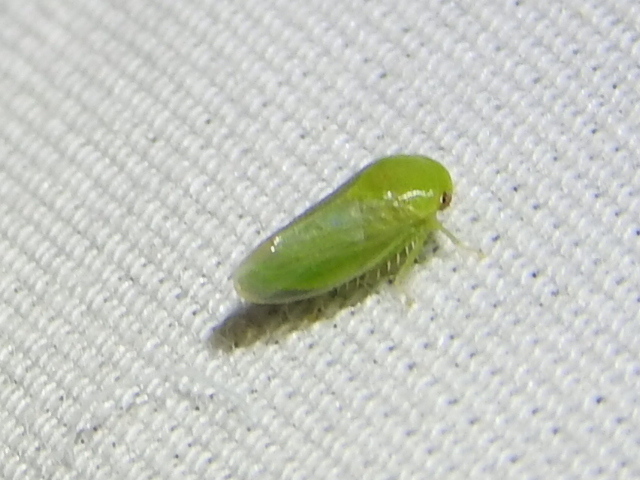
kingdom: Animalia
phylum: Arthropoda
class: Insecta
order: Hemiptera
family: Cicadellidae
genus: Penestragania
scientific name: Penestragania robusta
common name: Robust leafhopper
